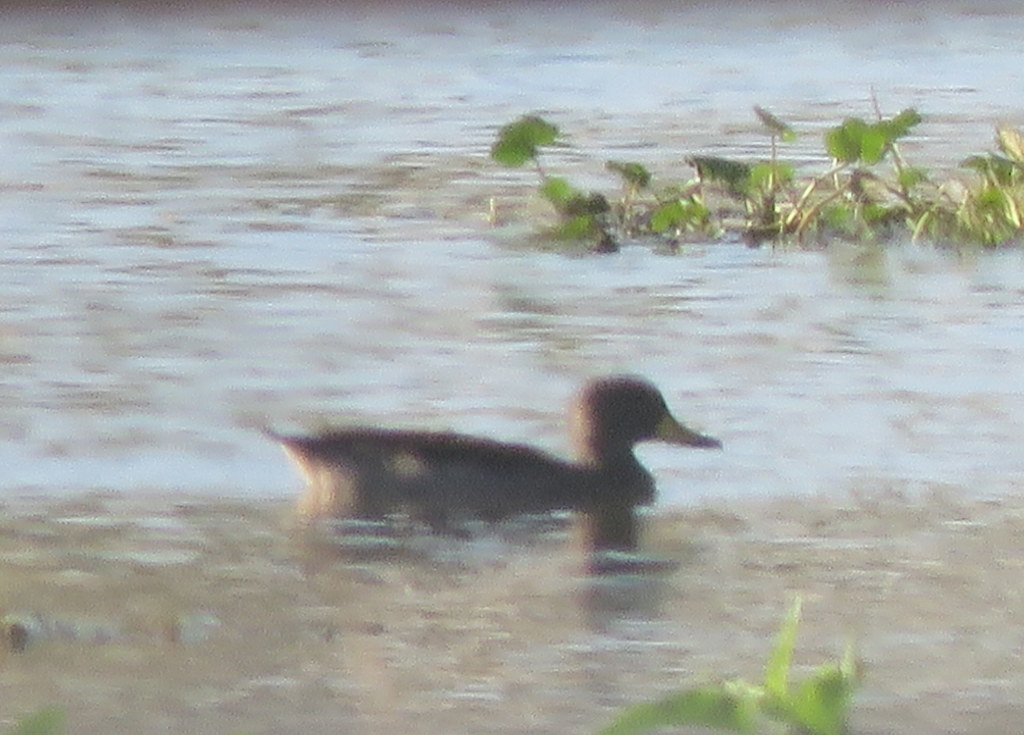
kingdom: Animalia
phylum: Chordata
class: Aves
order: Anseriformes
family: Anatidae
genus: Anas
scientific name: Anas flavirostris
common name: Yellow-billed teal
